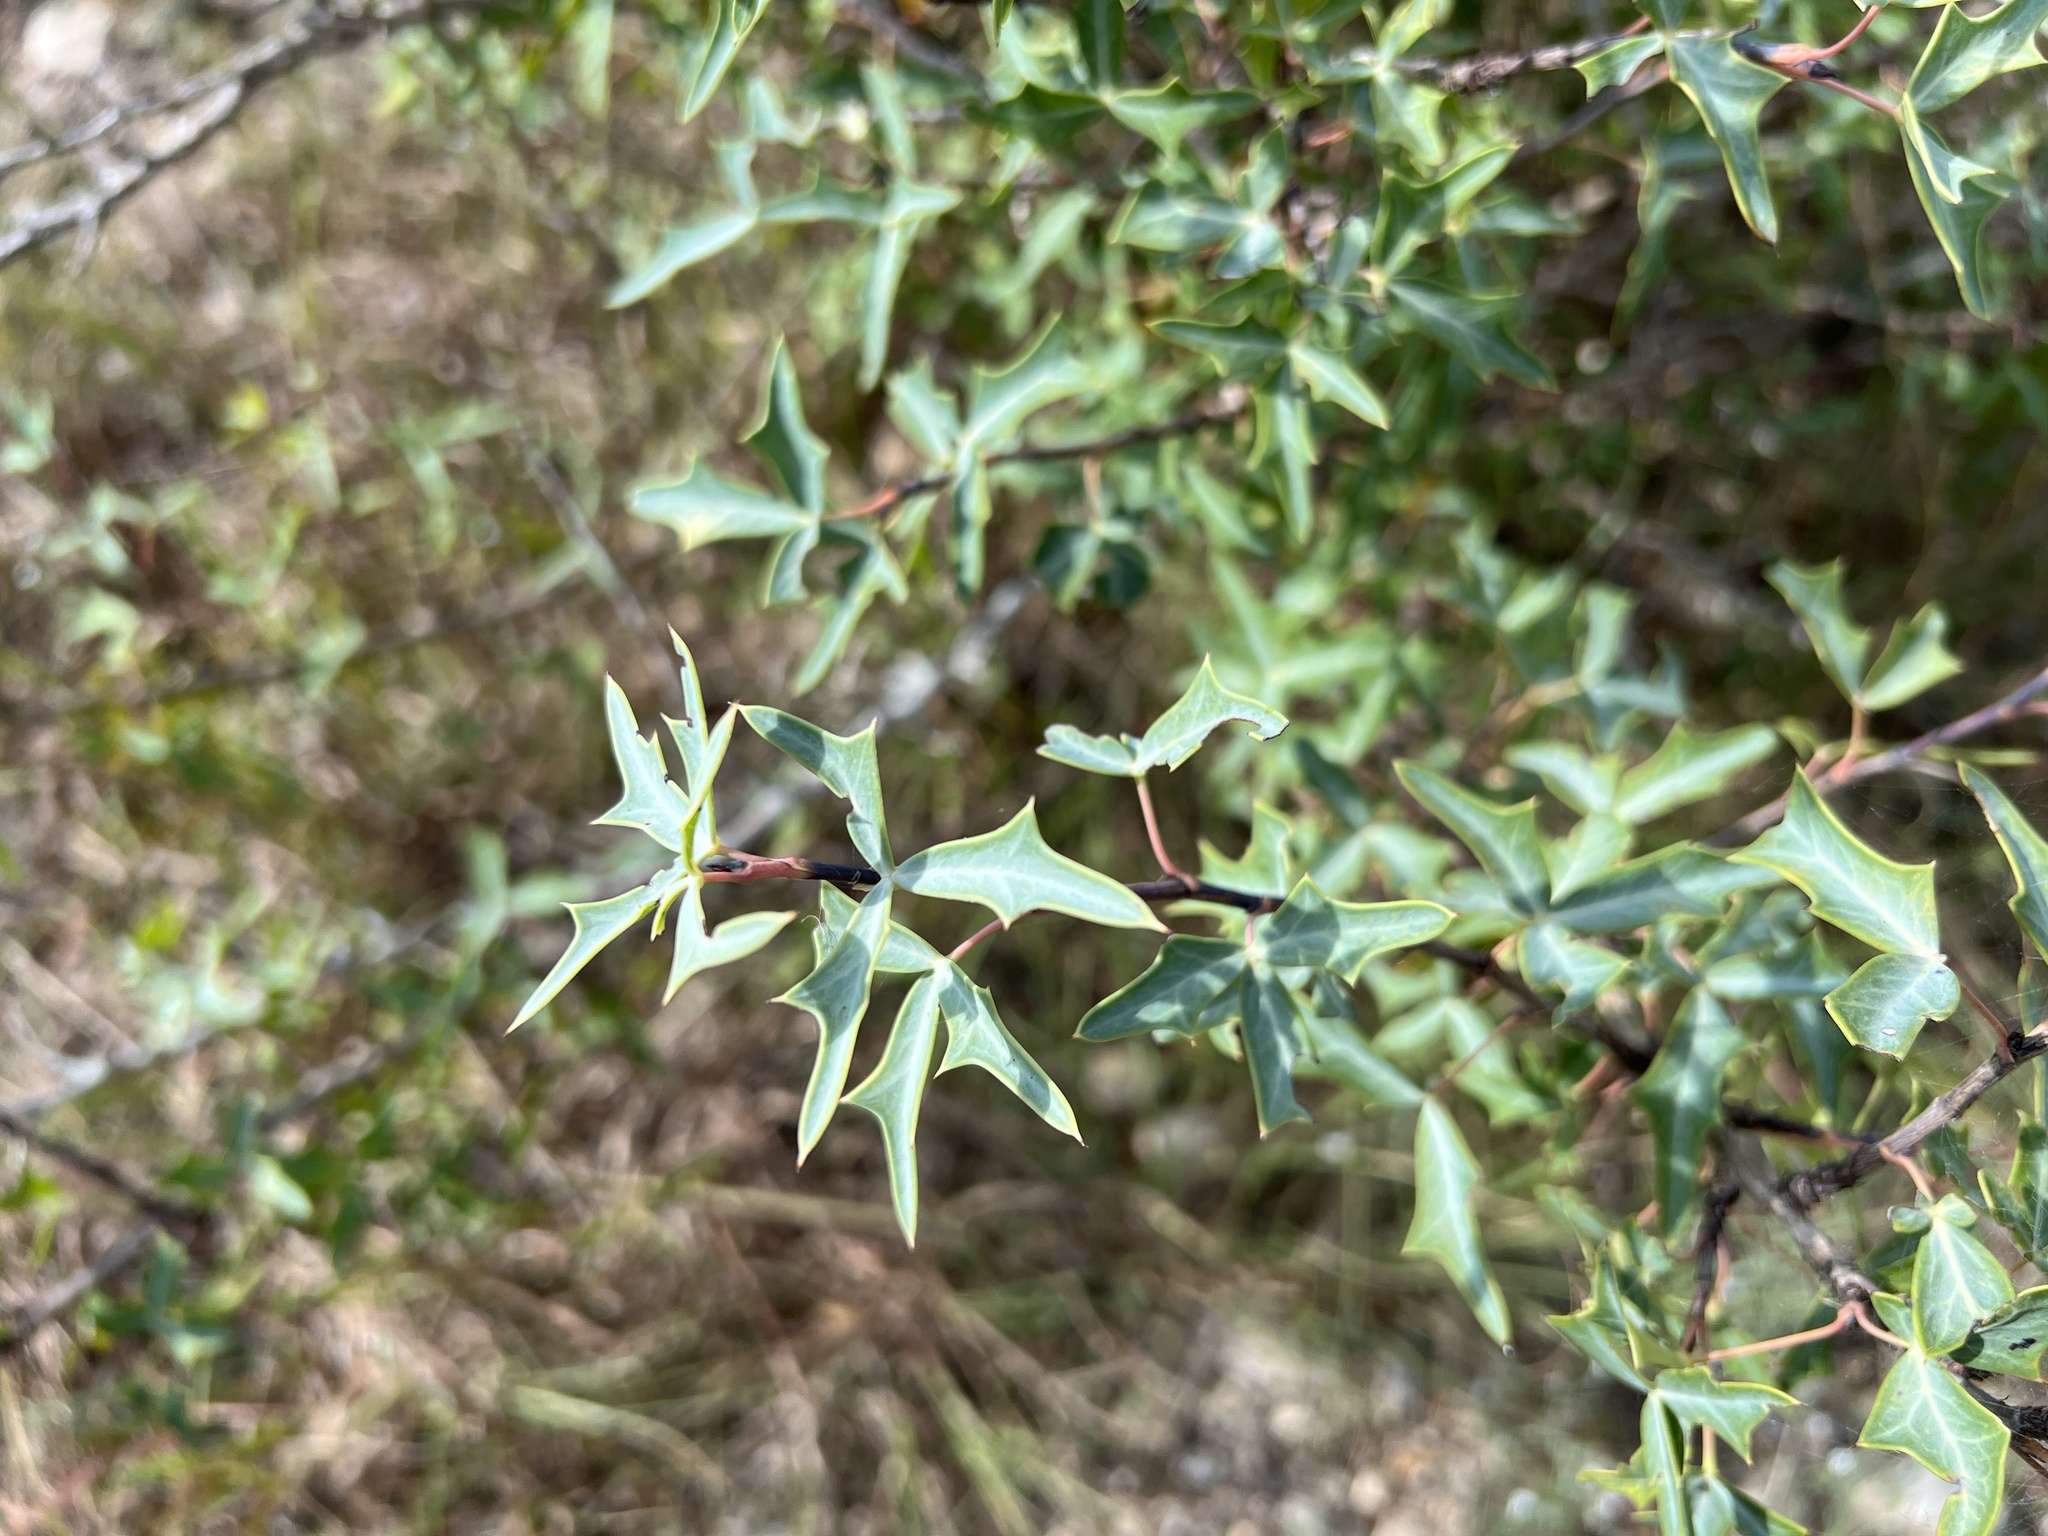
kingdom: Plantae
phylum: Tracheophyta
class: Magnoliopsida
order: Ranunculales
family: Berberidaceae
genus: Alloberberis
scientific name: Alloberberis trifoliolata
